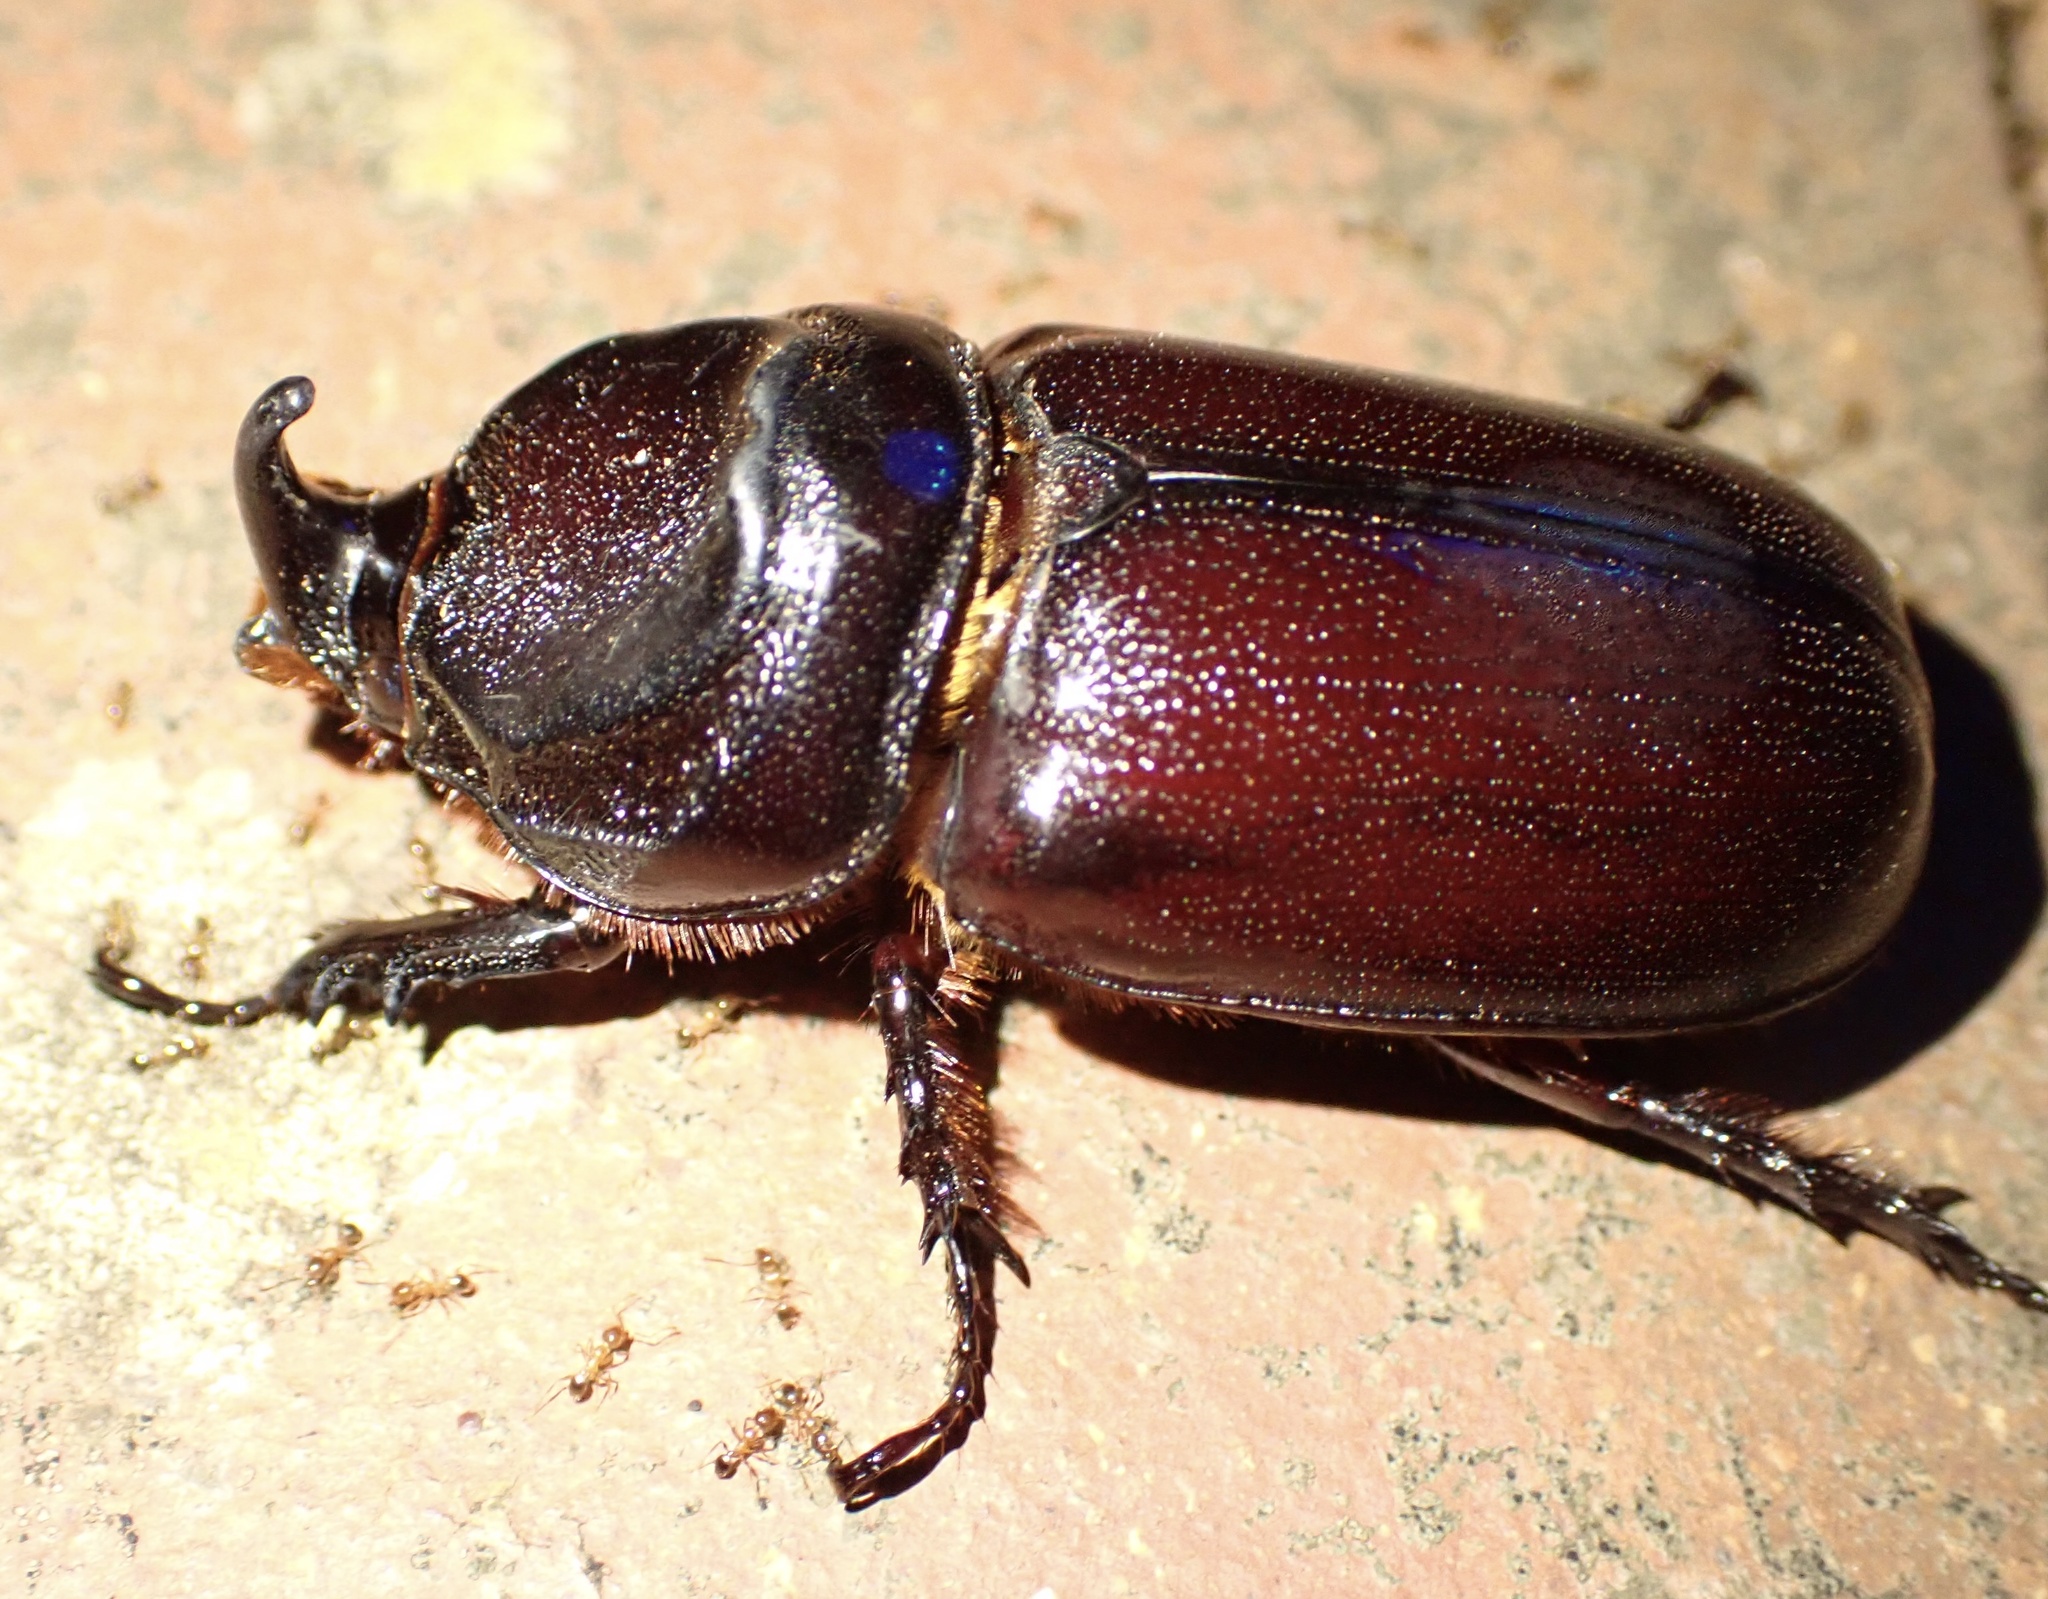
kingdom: Animalia
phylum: Arthropoda
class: Insecta
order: Coleoptera
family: Scarabaeidae
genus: Oryctes
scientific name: Oryctes monoceros
